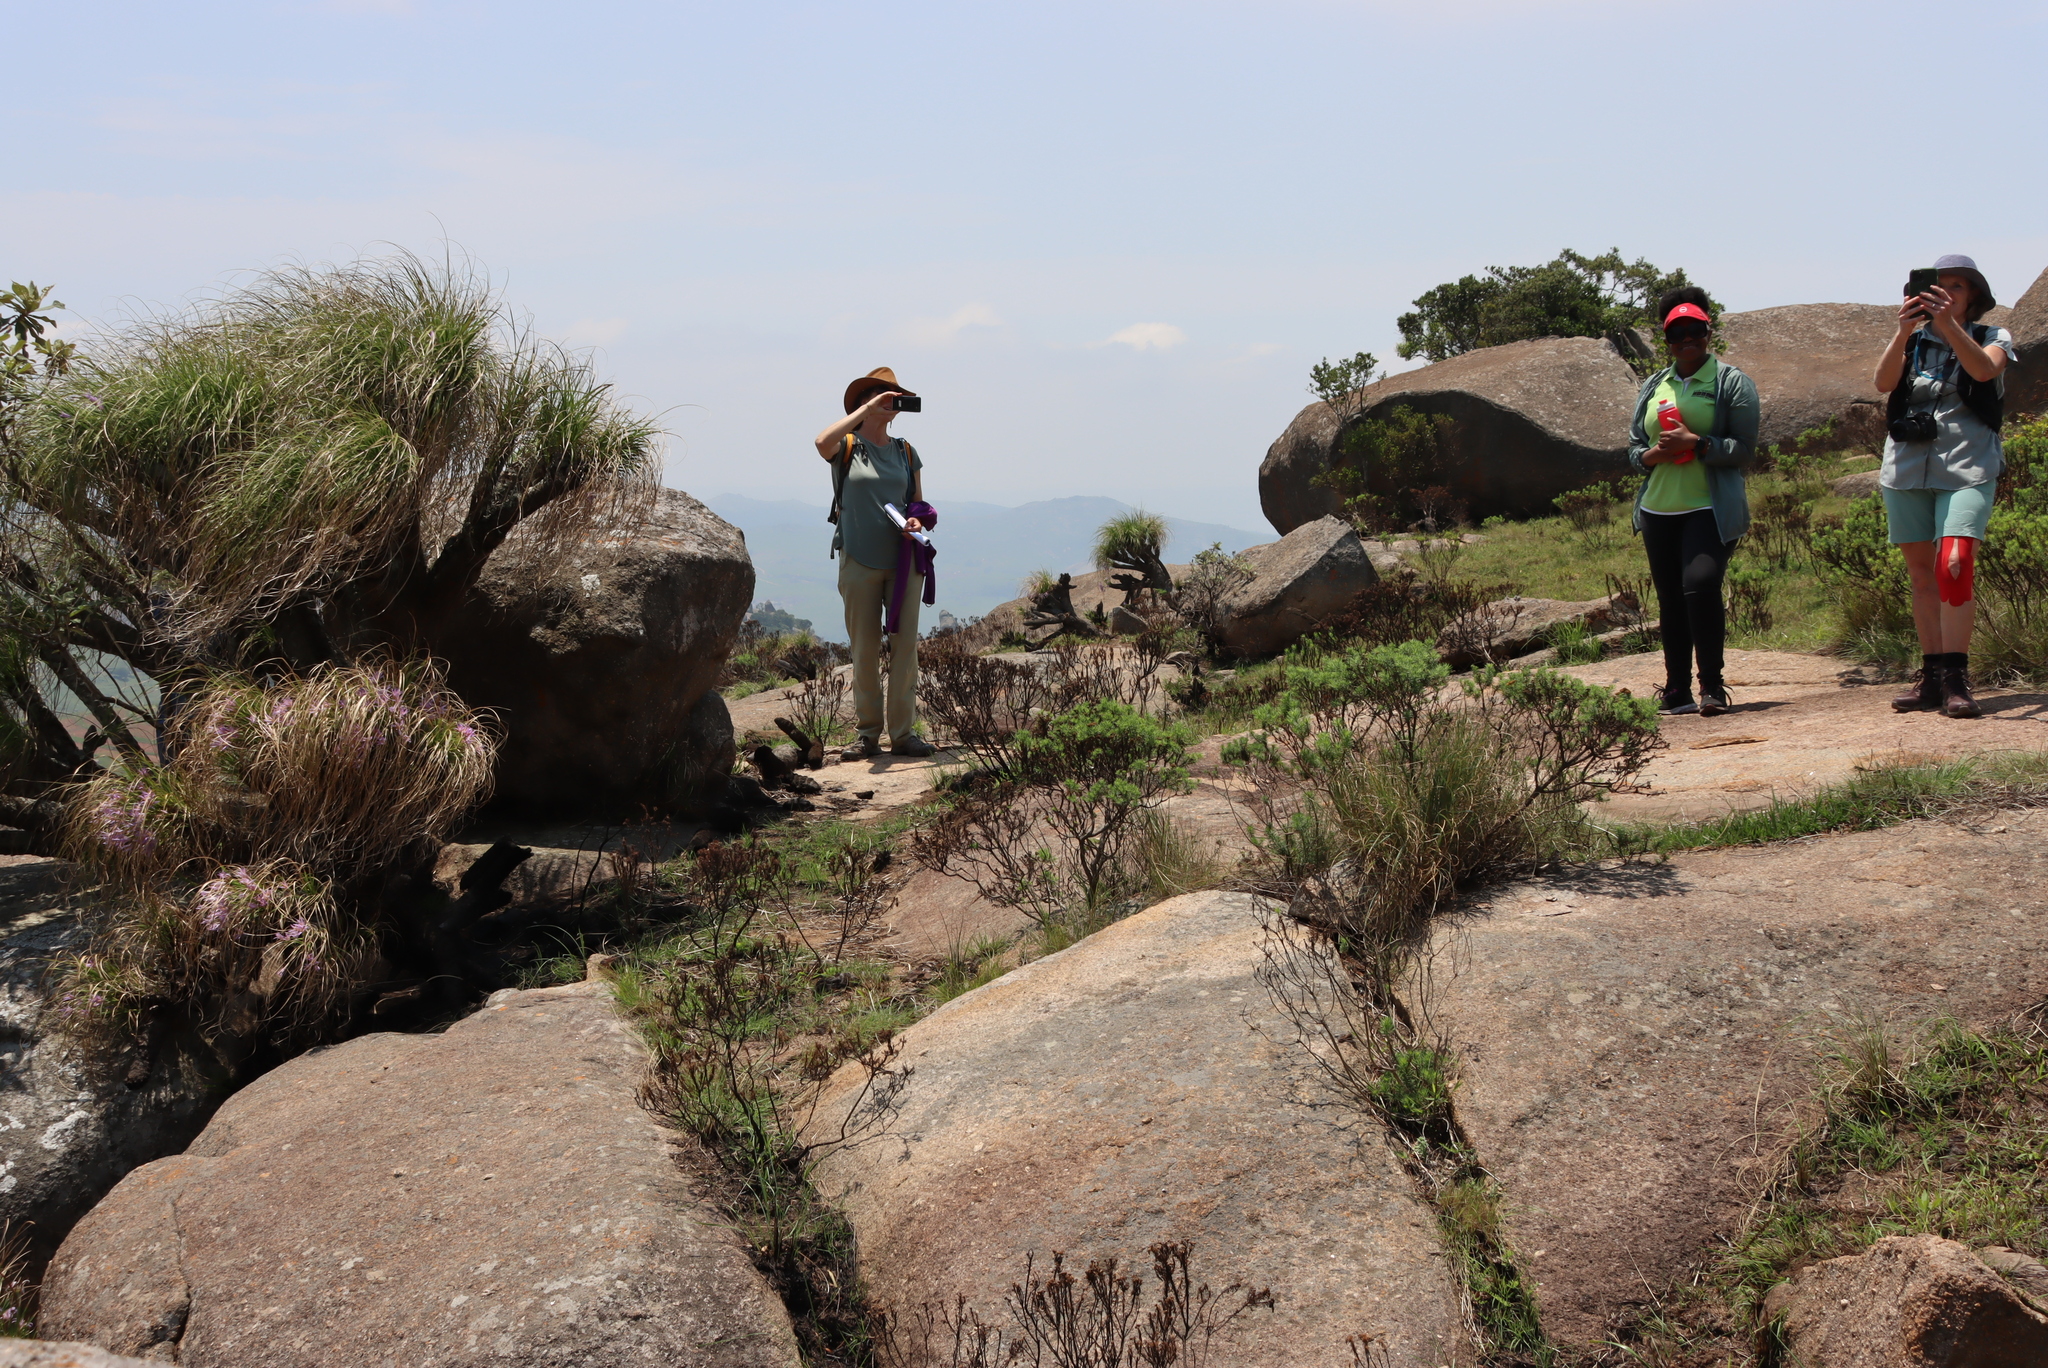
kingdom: Plantae
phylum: Tracheophyta
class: Liliopsida
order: Pandanales
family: Velloziaceae
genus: Xerophyta
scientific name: Xerophyta retinervis
